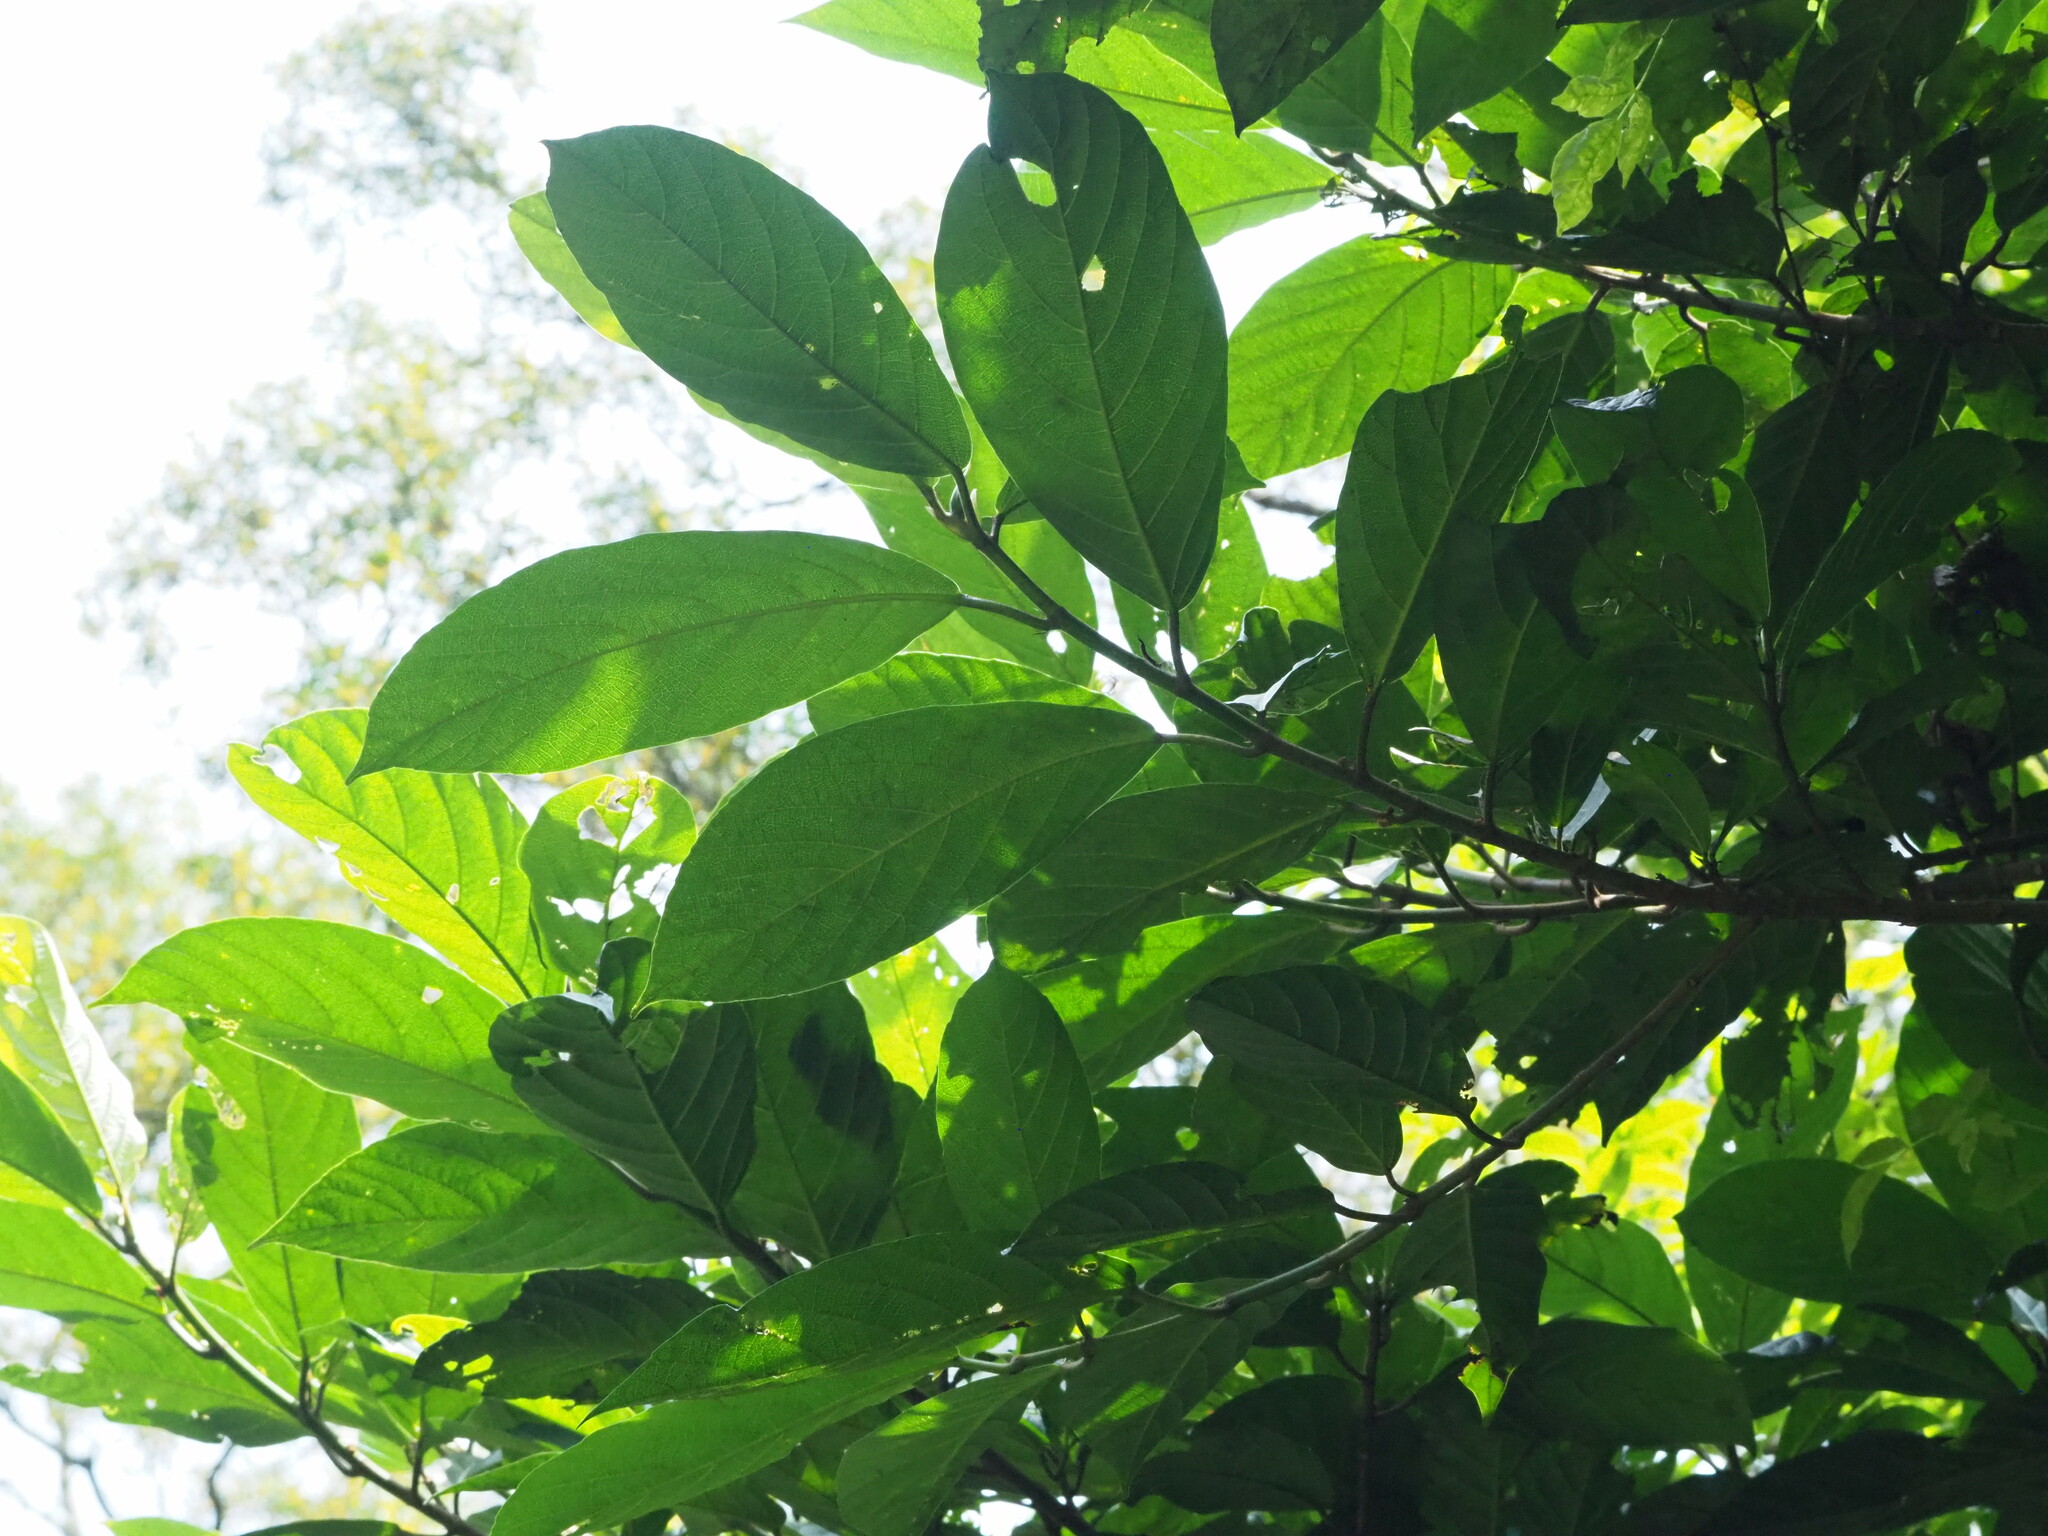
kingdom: Plantae
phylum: Tracheophyta
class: Magnoliopsida
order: Rosales
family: Moraceae
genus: Ficus
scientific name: Ficus benguetensis
